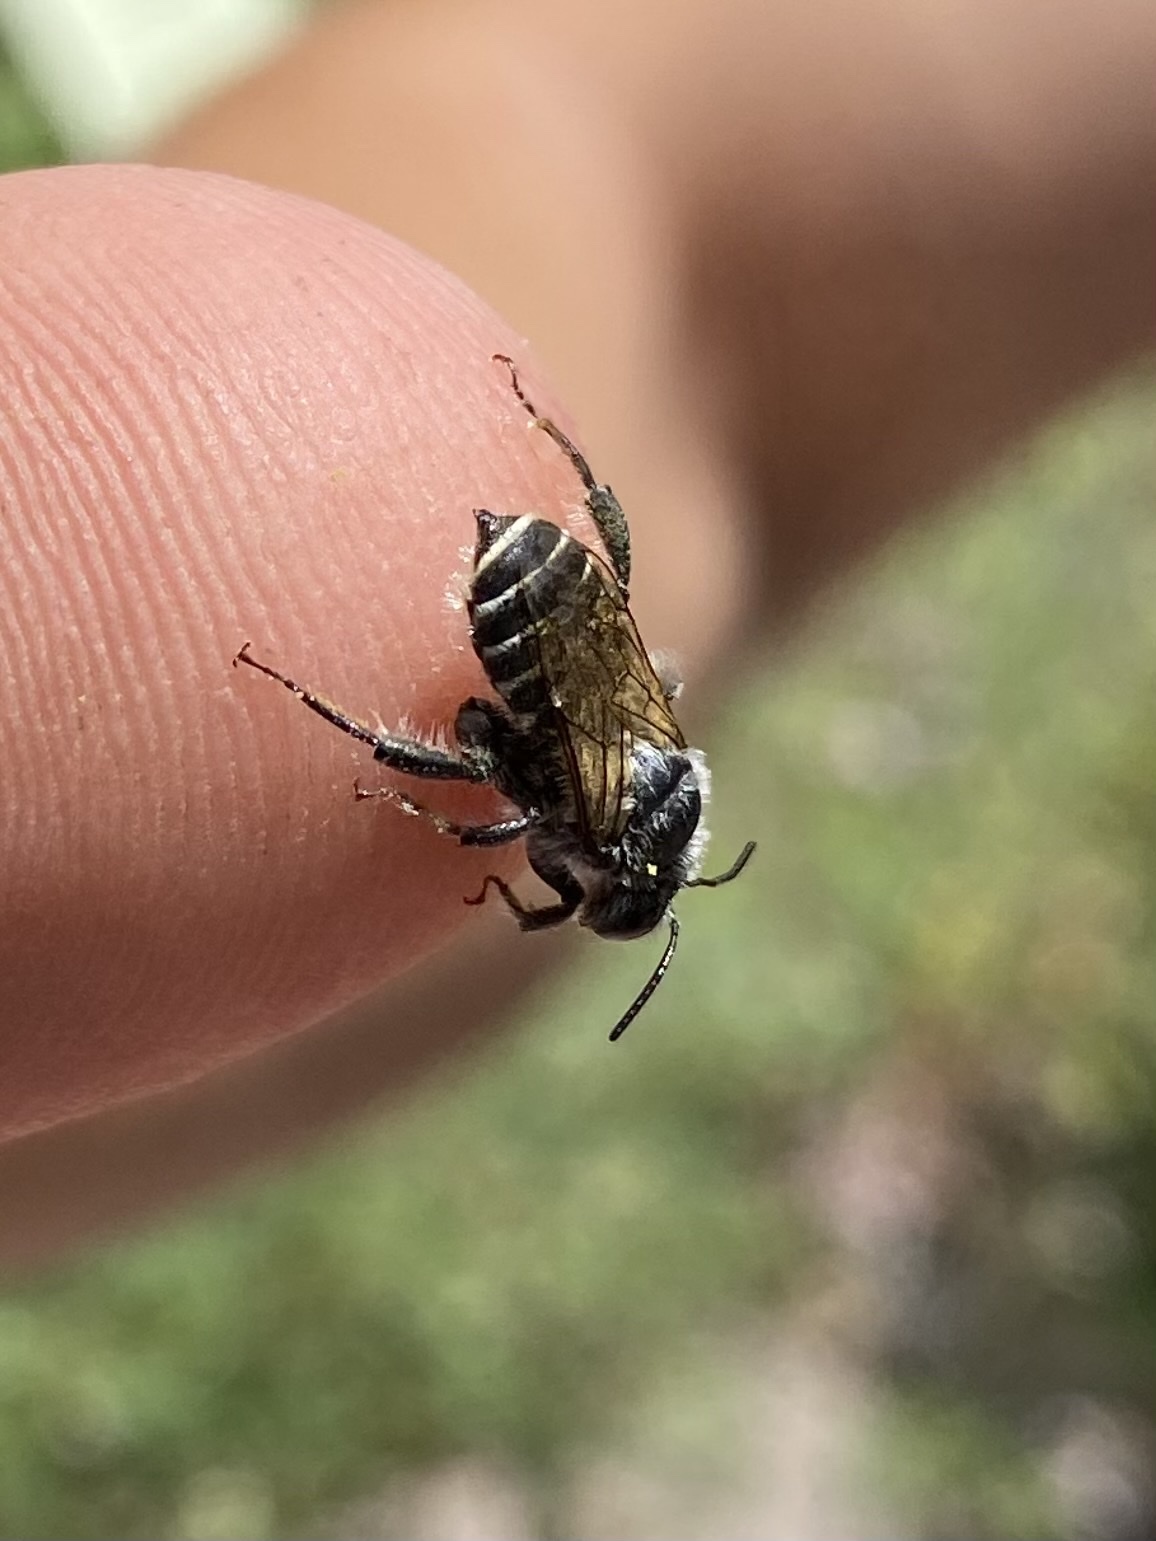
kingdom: Animalia
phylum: Arthropoda
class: Insecta
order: Hymenoptera
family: Megachilidae
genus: Lithurgopsis
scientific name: Lithurgopsis apicalis
